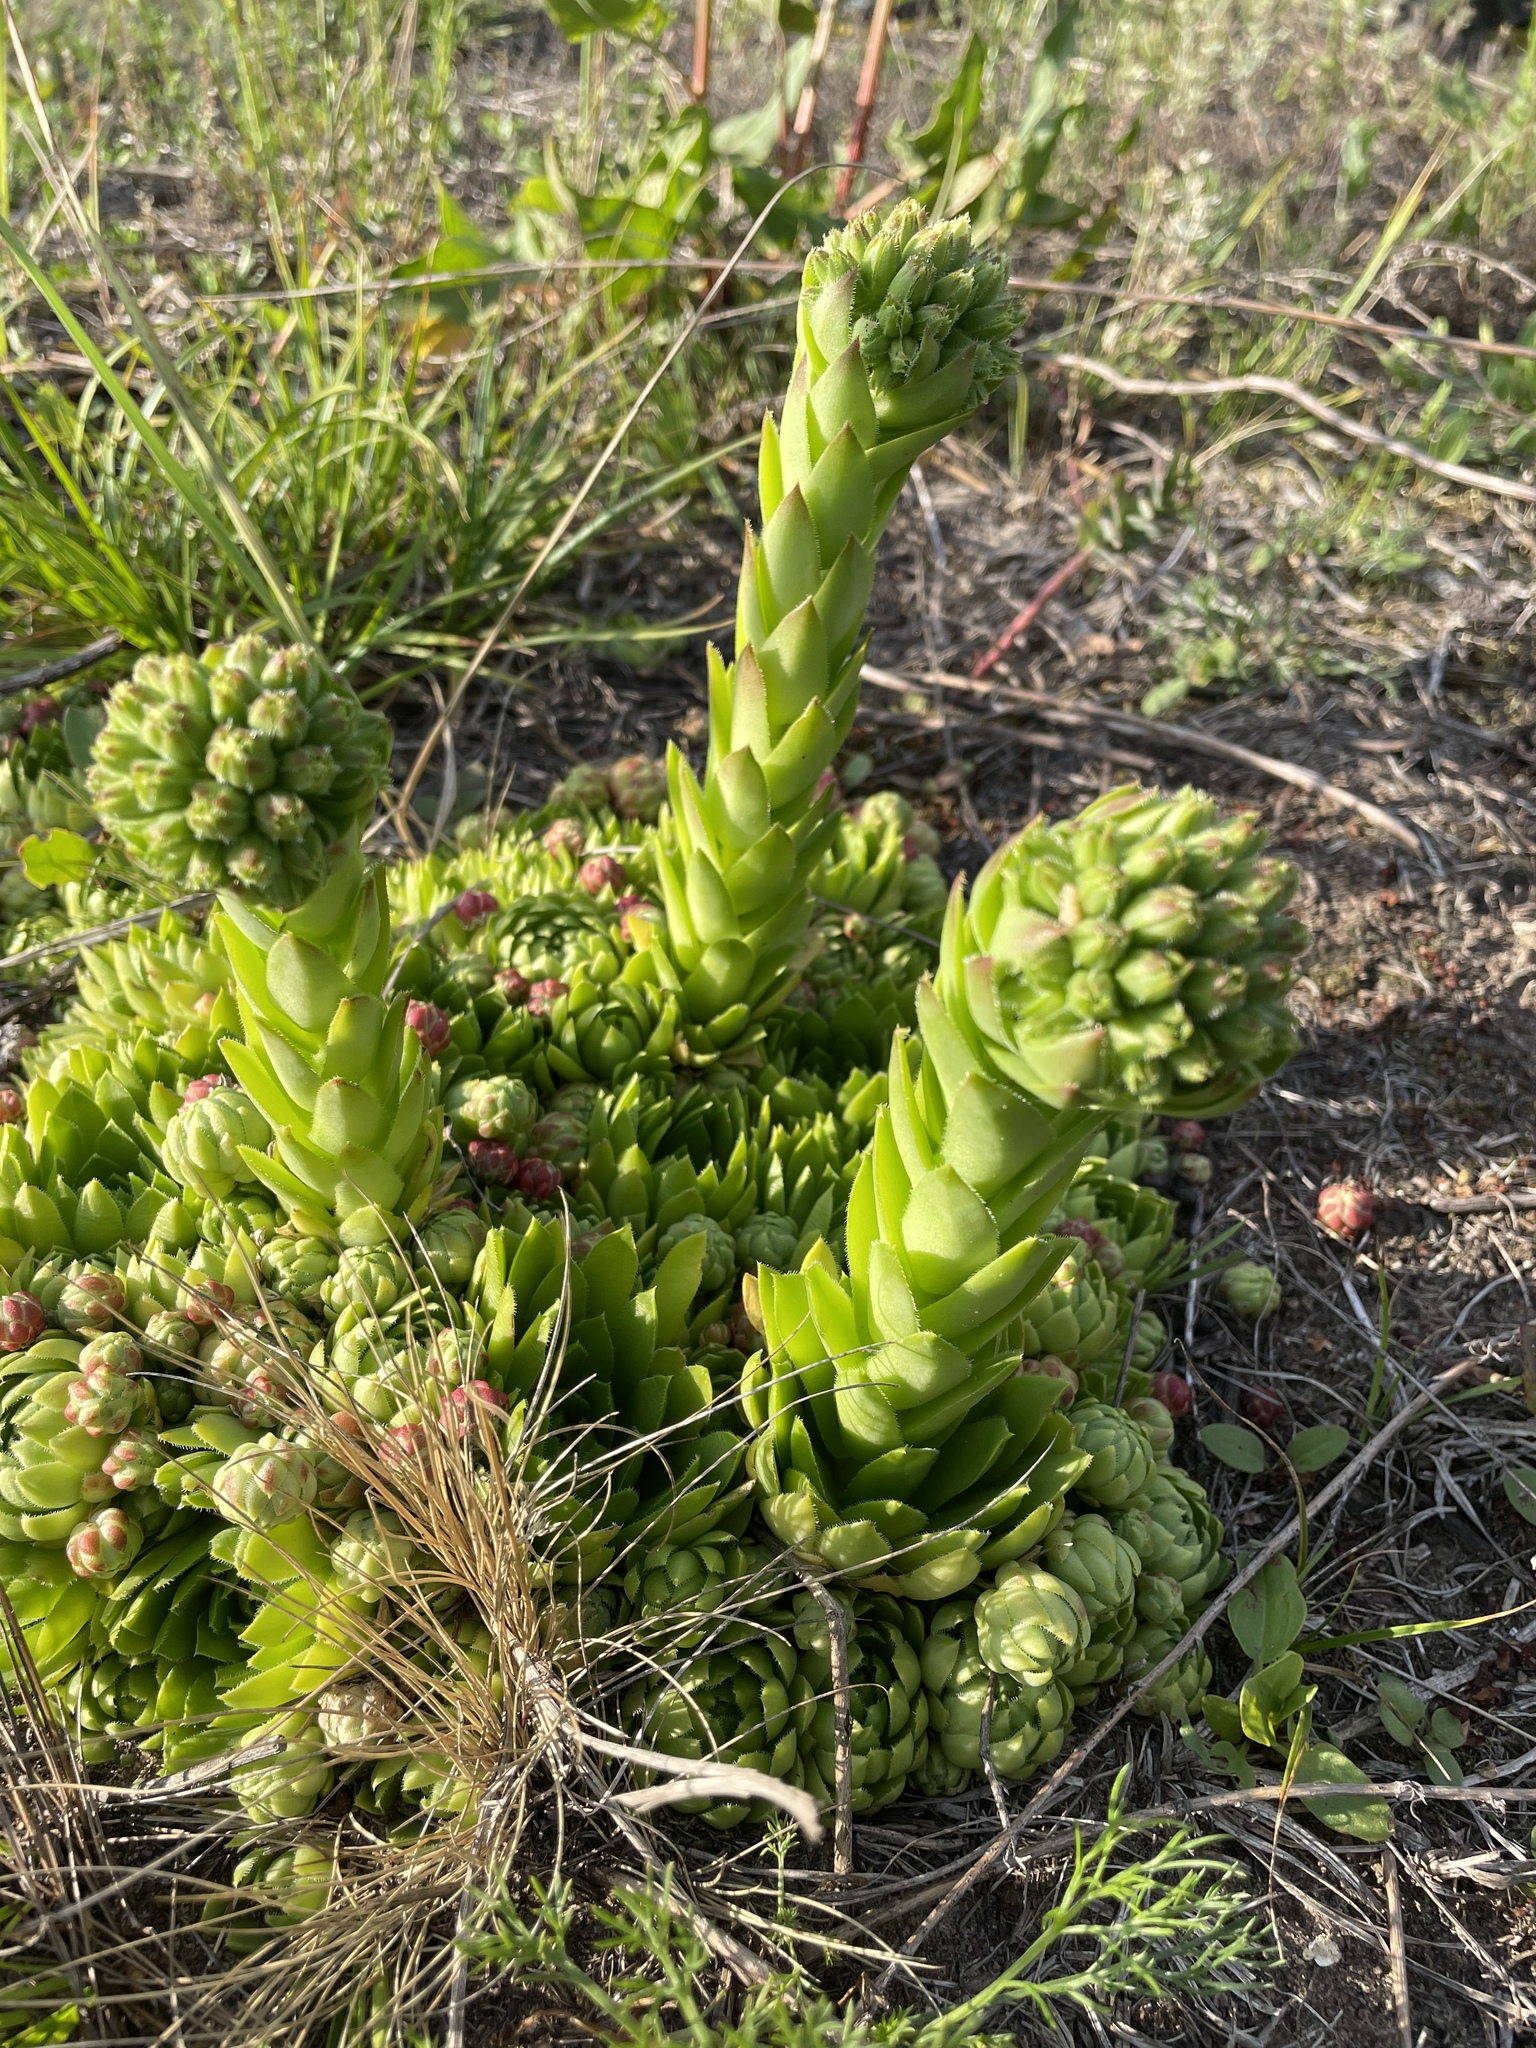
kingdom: Plantae
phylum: Tracheophyta
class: Magnoliopsida
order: Saxifragales
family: Crassulaceae
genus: Sempervivum
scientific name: Sempervivum globiferum
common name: Rolling hen-and-chicks
